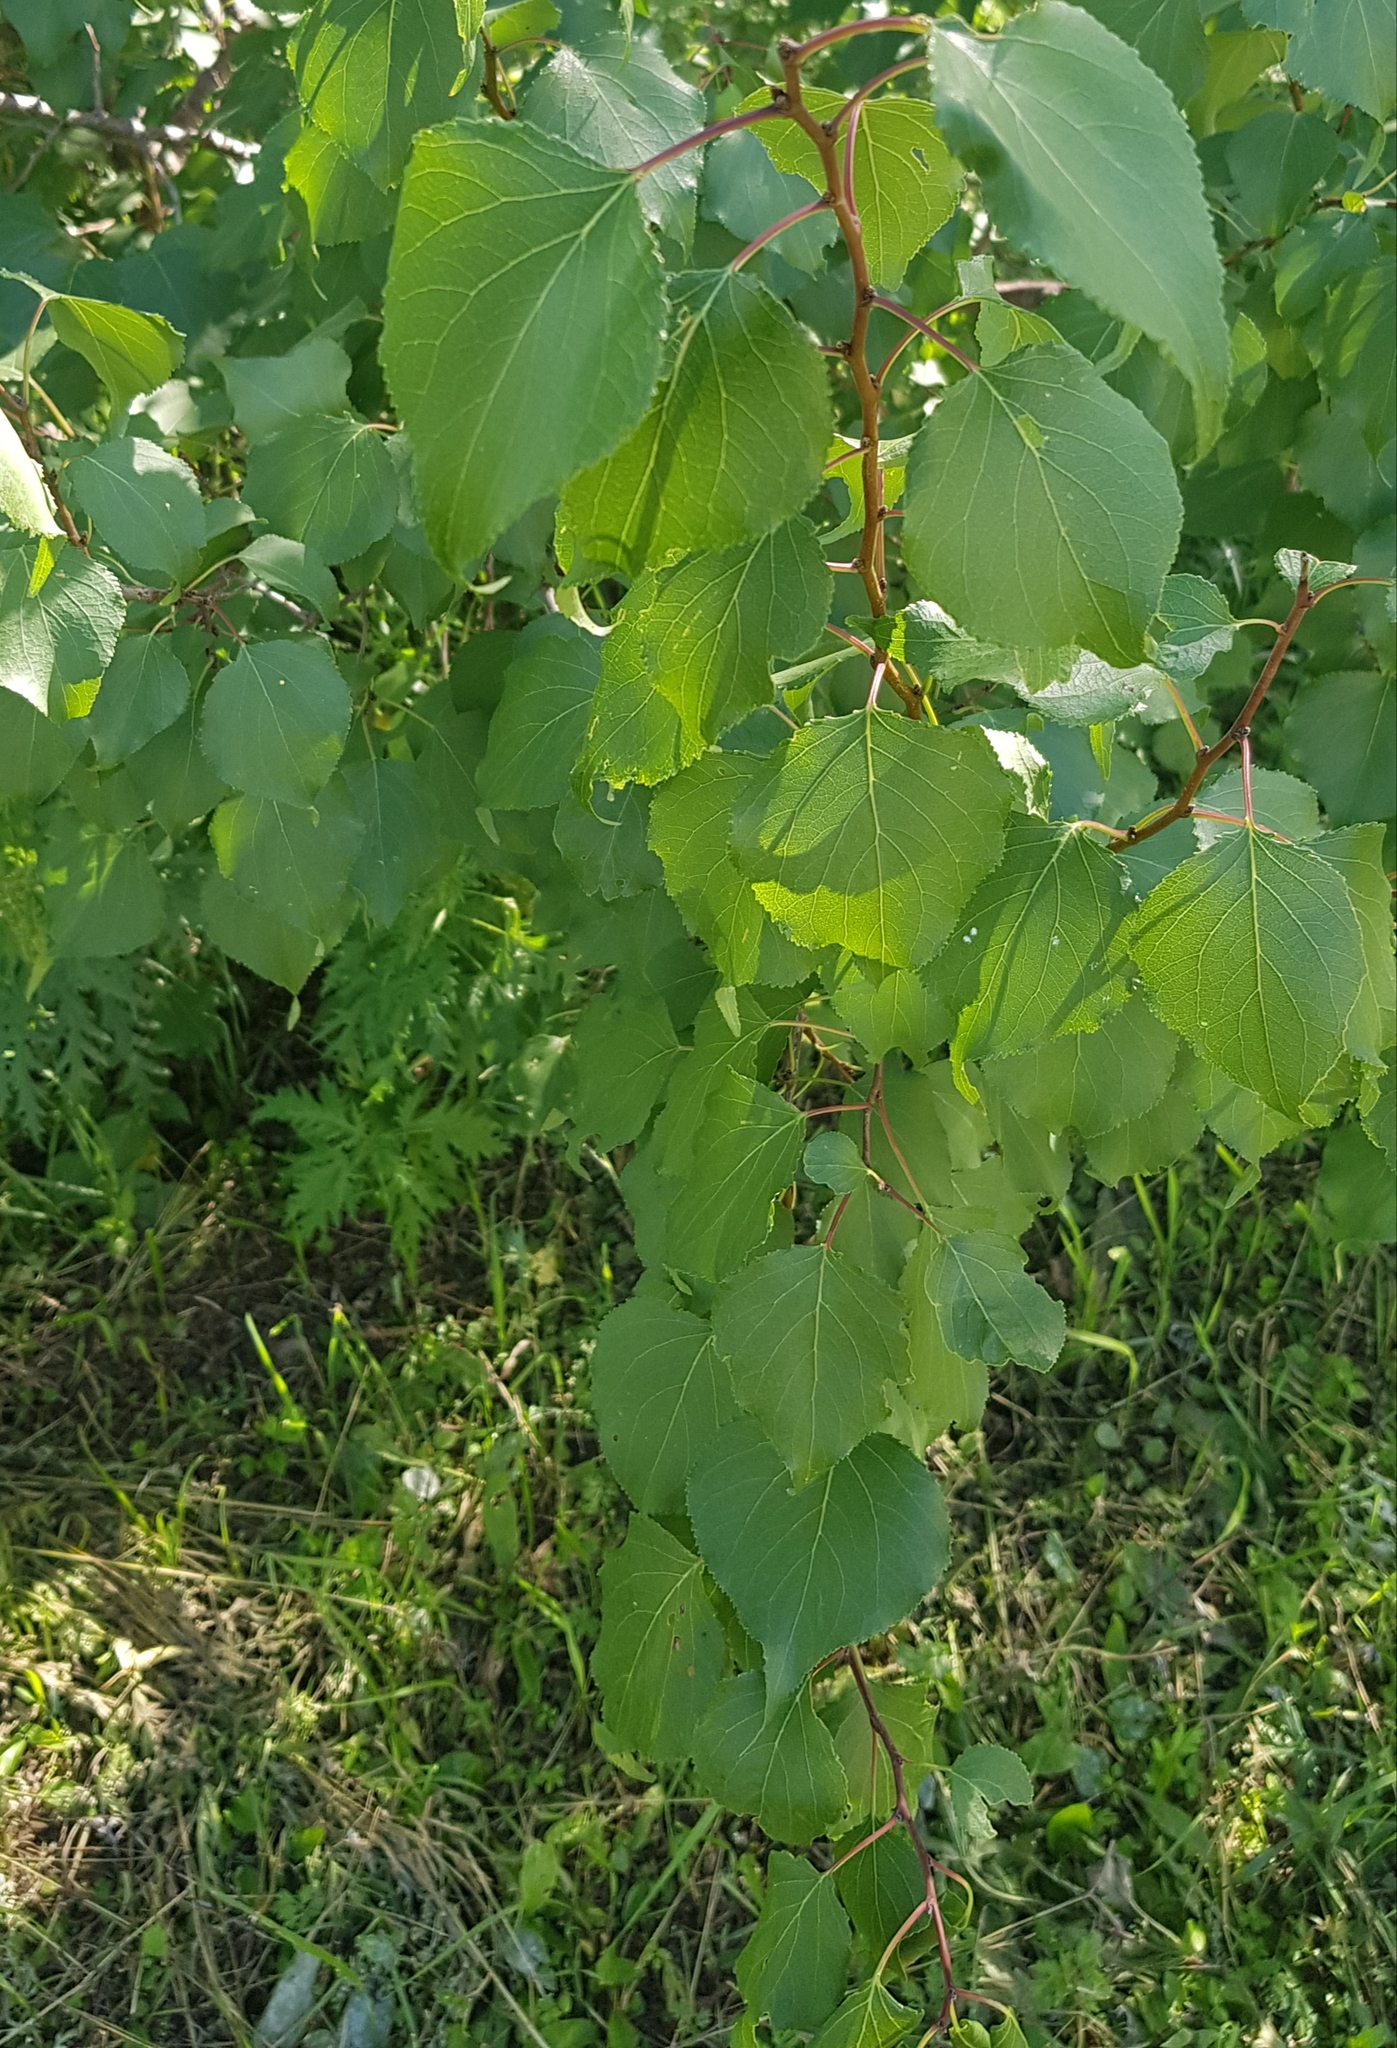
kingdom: Plantae
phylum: Tracheophyta
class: Magnoliopsida
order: Fagales
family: Betulaceae
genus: Betula
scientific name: Betula pendula
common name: Silver birch
